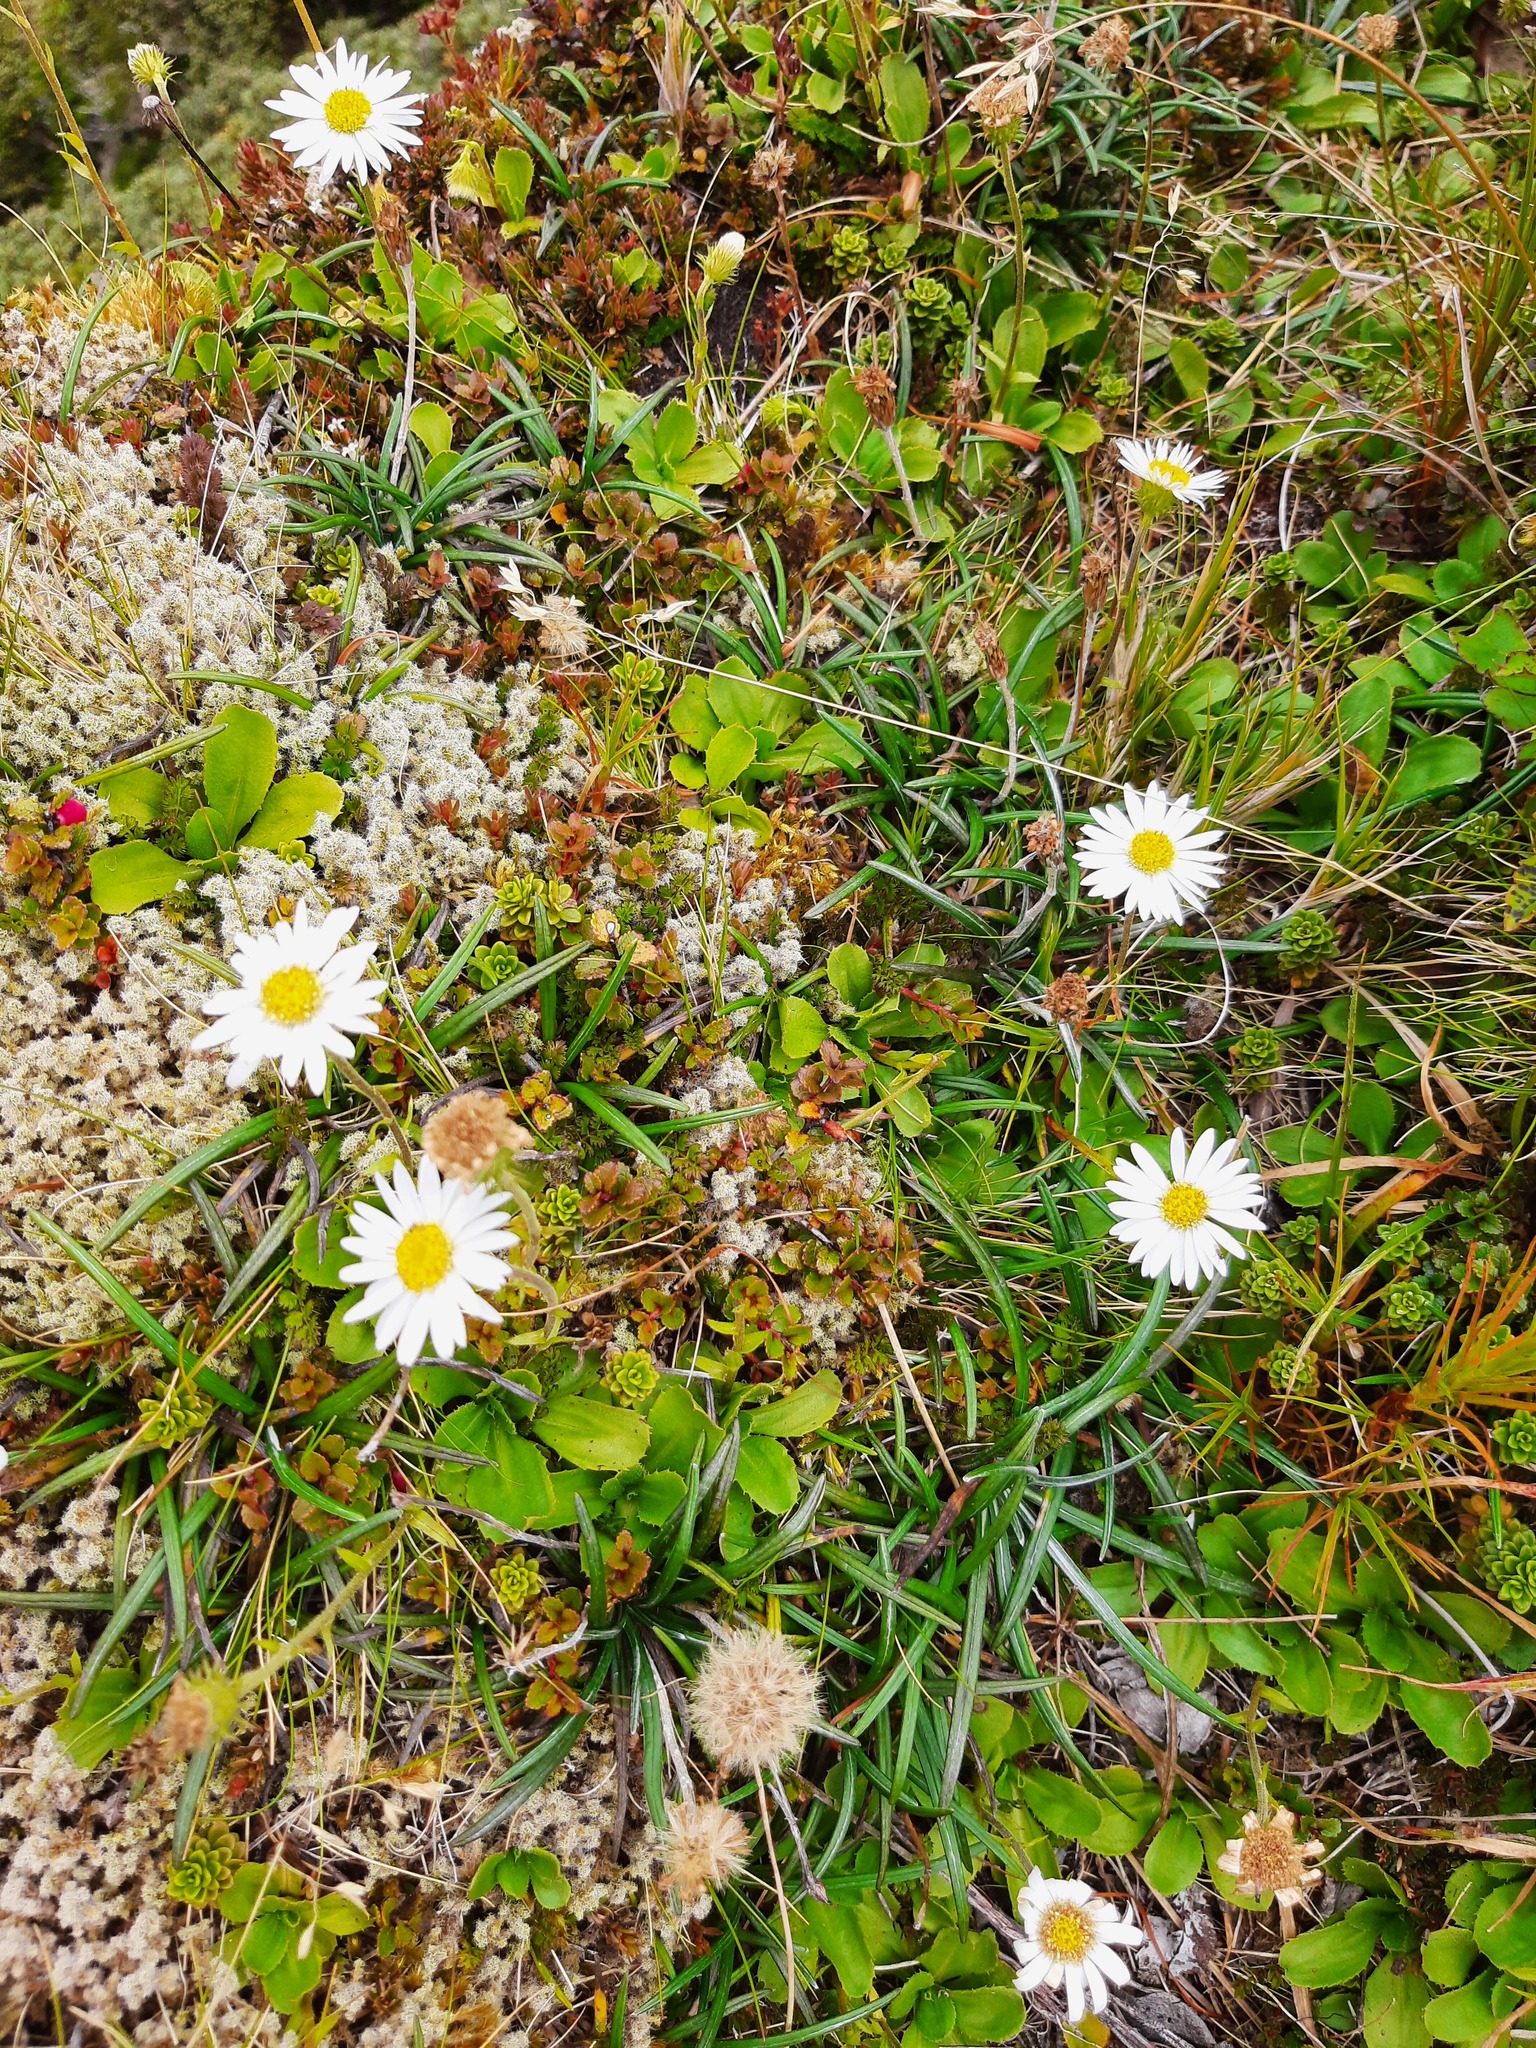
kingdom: Plantae
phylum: Tracheophyta
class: Magnoliopsida
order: Asterales
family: Asteraceae
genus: Celmisia
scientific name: Celmisia glandulosa
